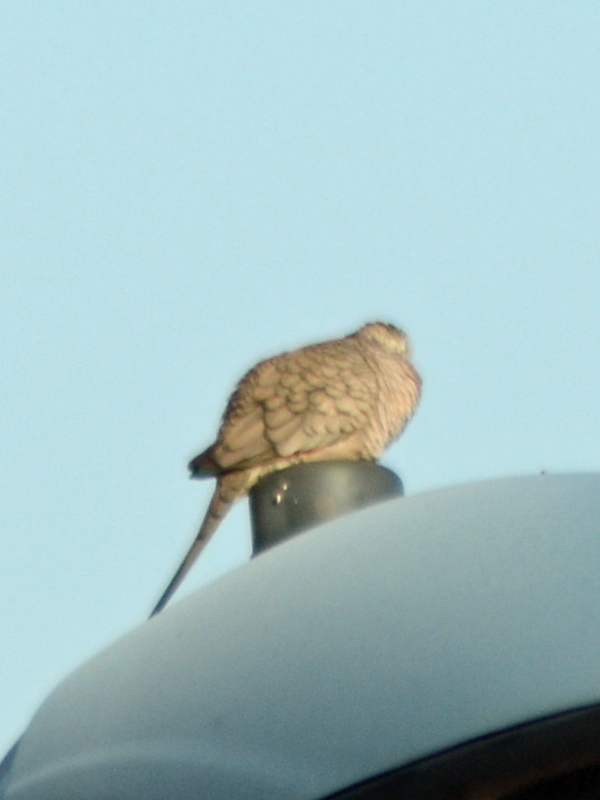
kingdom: Animalia
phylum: Chordata
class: Aves
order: Columbiformes
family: Columbidae
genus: Columbina
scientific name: Columbina inca
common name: Inca dove
